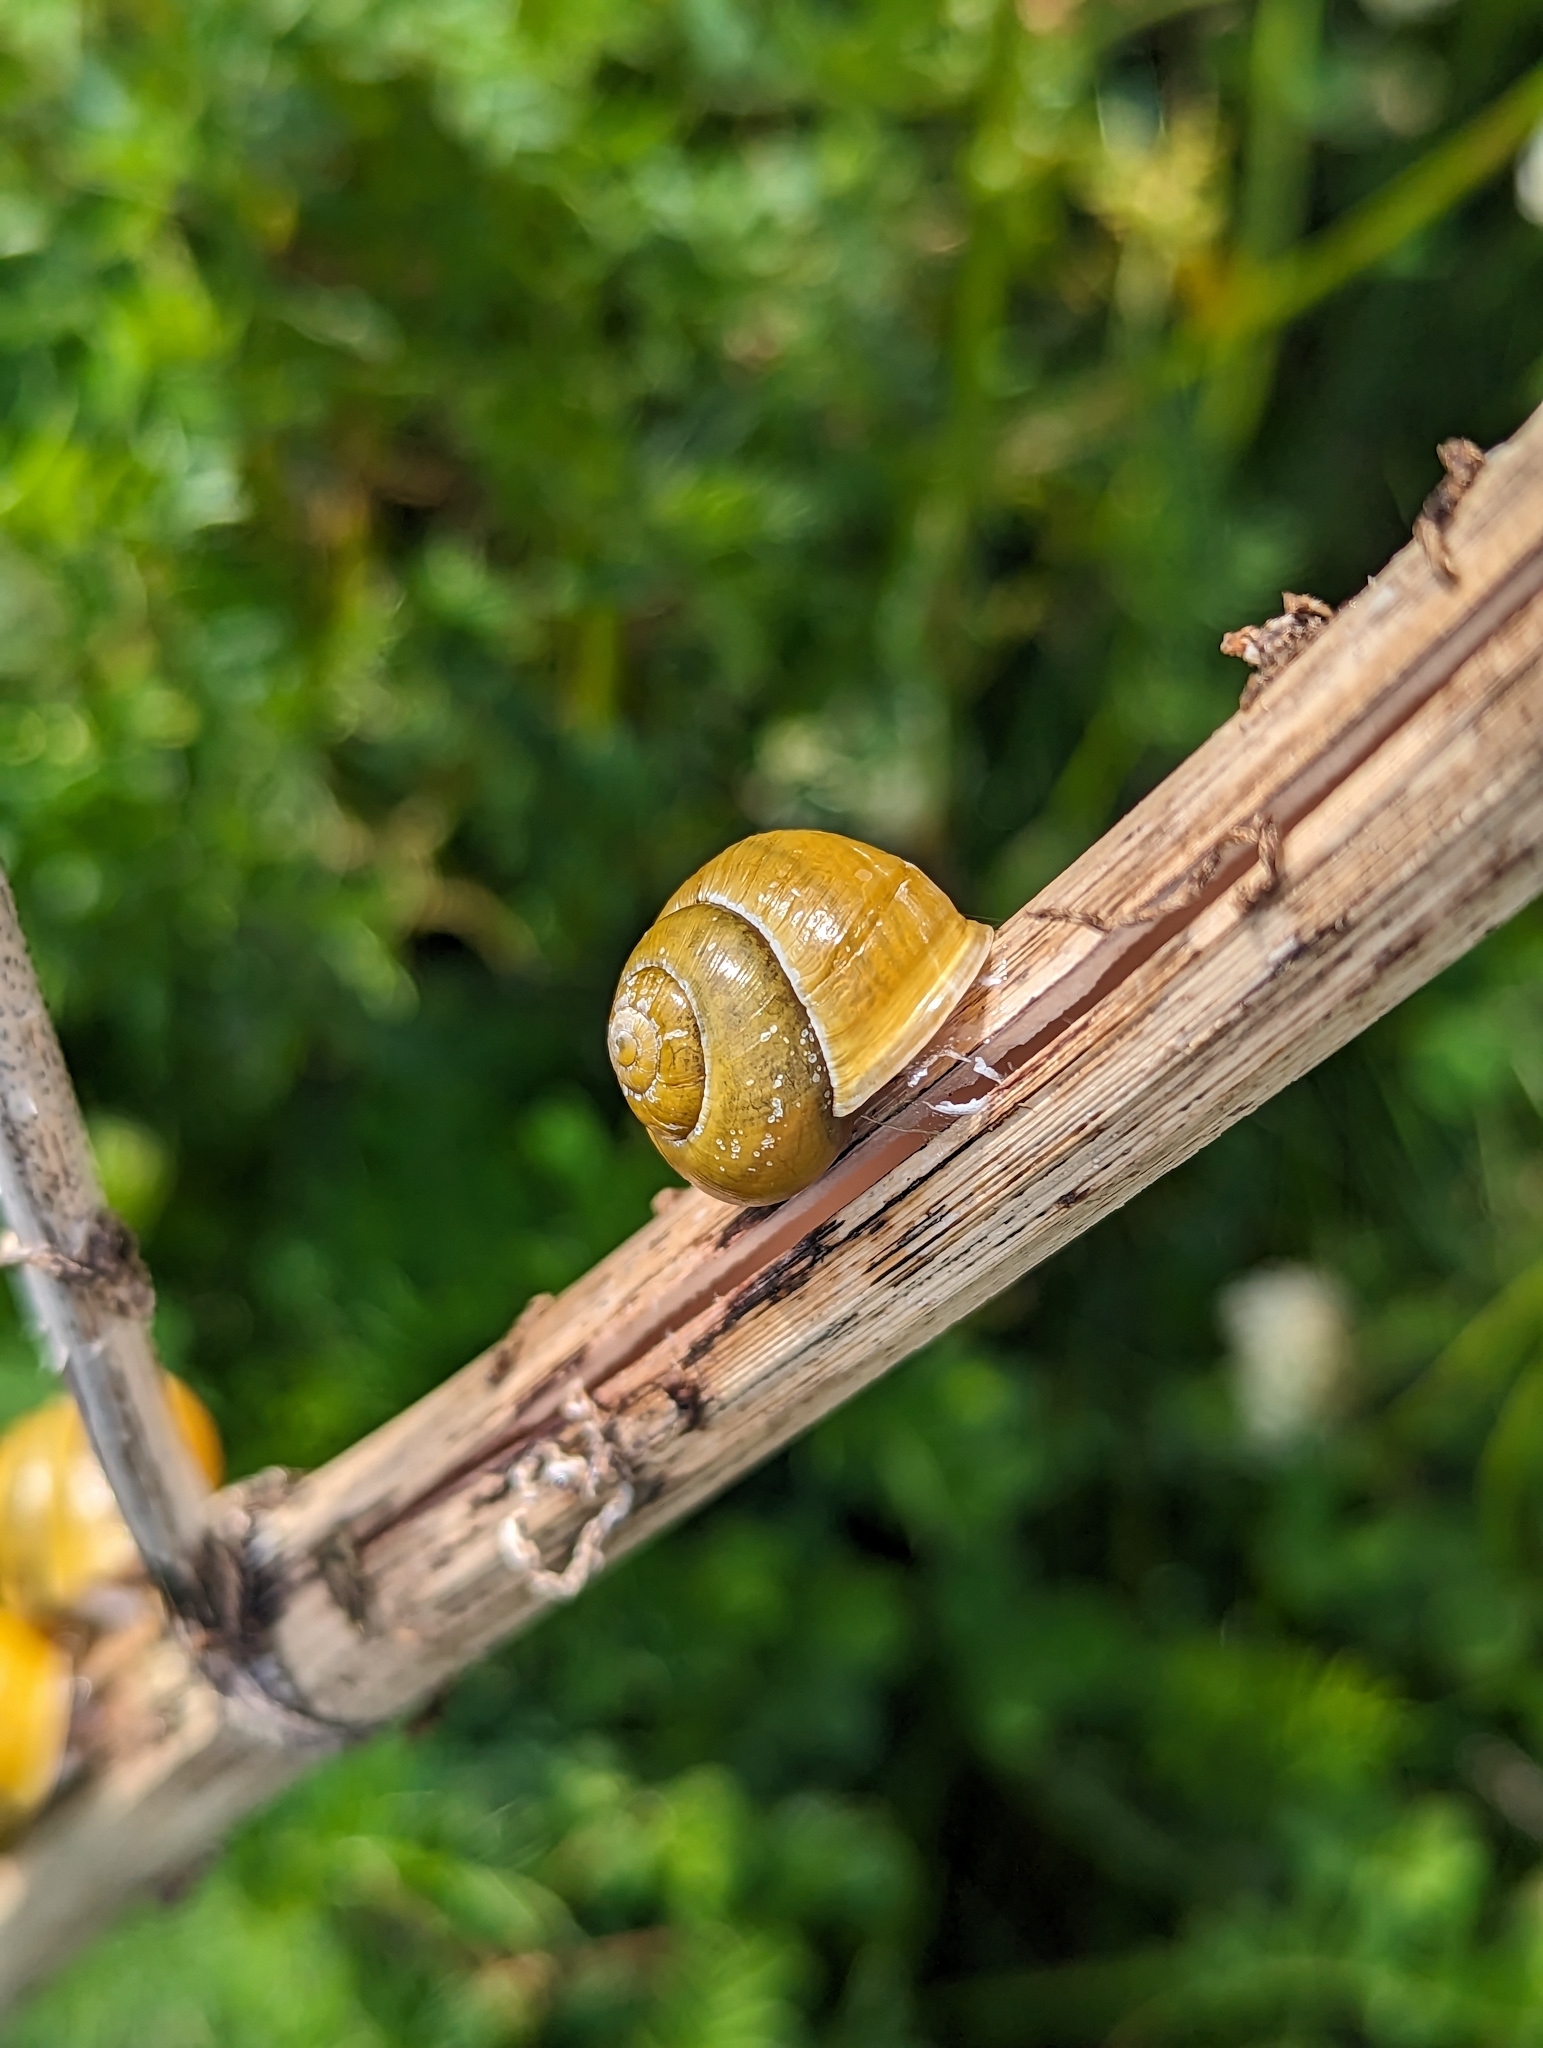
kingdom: Animalia
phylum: Mollusca
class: Gastropoda
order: Stylommatophora
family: Helicidae
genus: Cepaea
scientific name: Cepaea hortensis
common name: White-lip gardensnail
